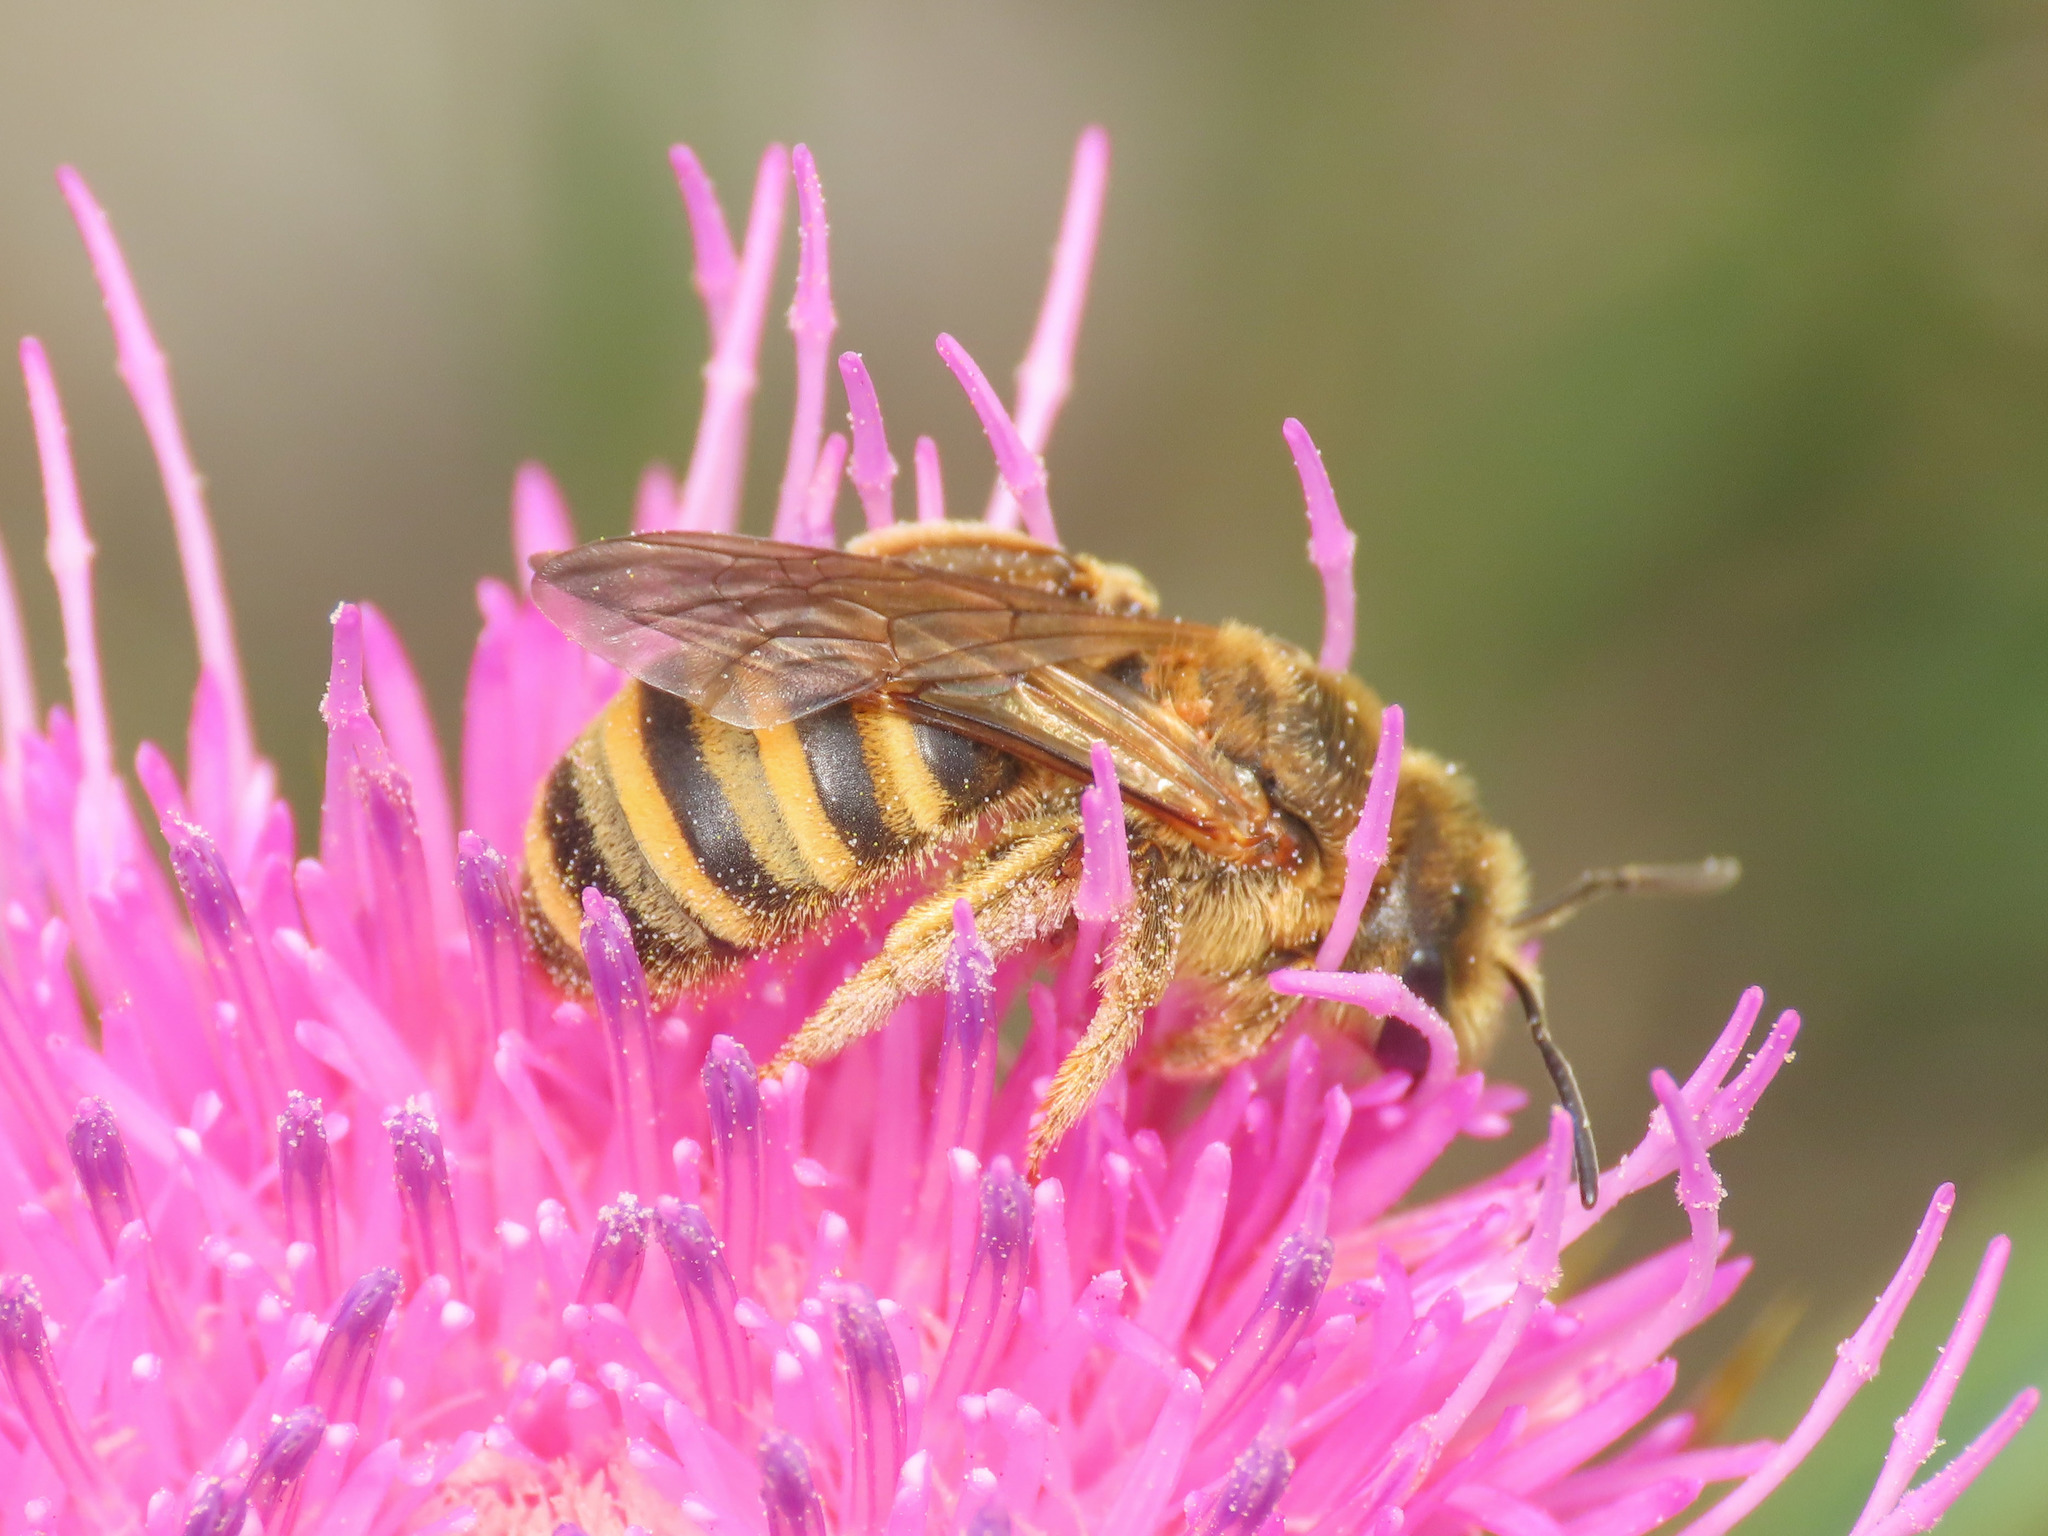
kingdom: Animalia
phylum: Arthropoda
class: Insecta
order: Hymenoptera
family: Halictidae
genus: Halictus
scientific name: Halictus scabiosae
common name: Great banded furrow bee
